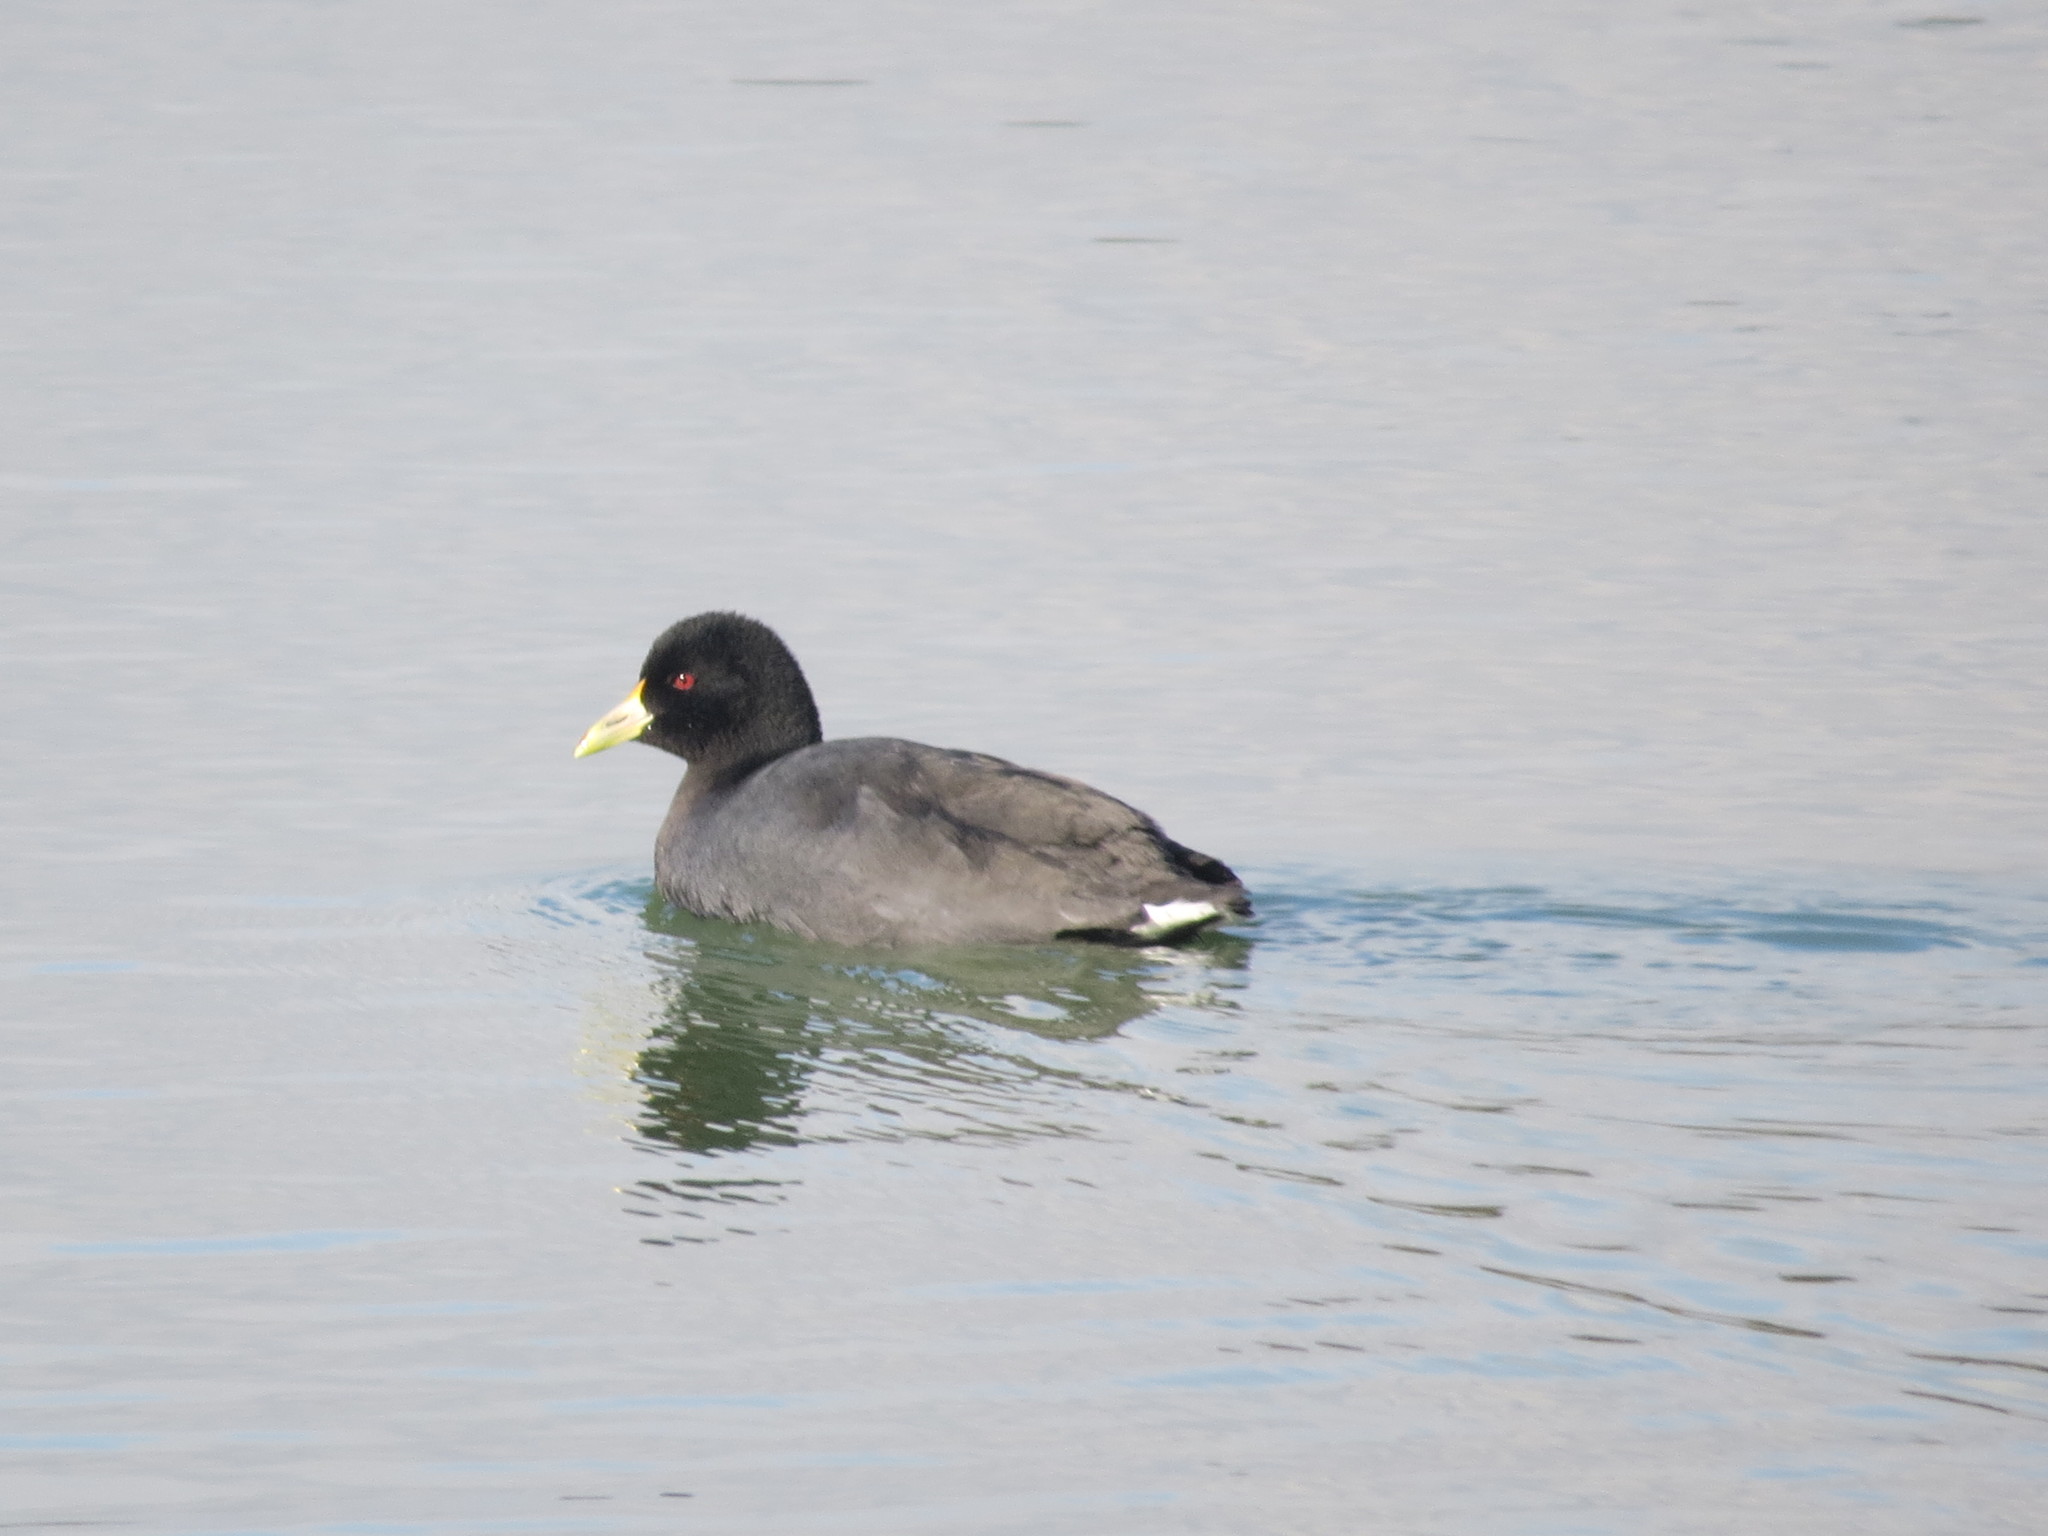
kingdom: Animalia
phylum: Chordata
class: Aves
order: Gruiformes
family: Rallidae
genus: Fulica
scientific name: Fulica leucoptera
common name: White-winged coot
